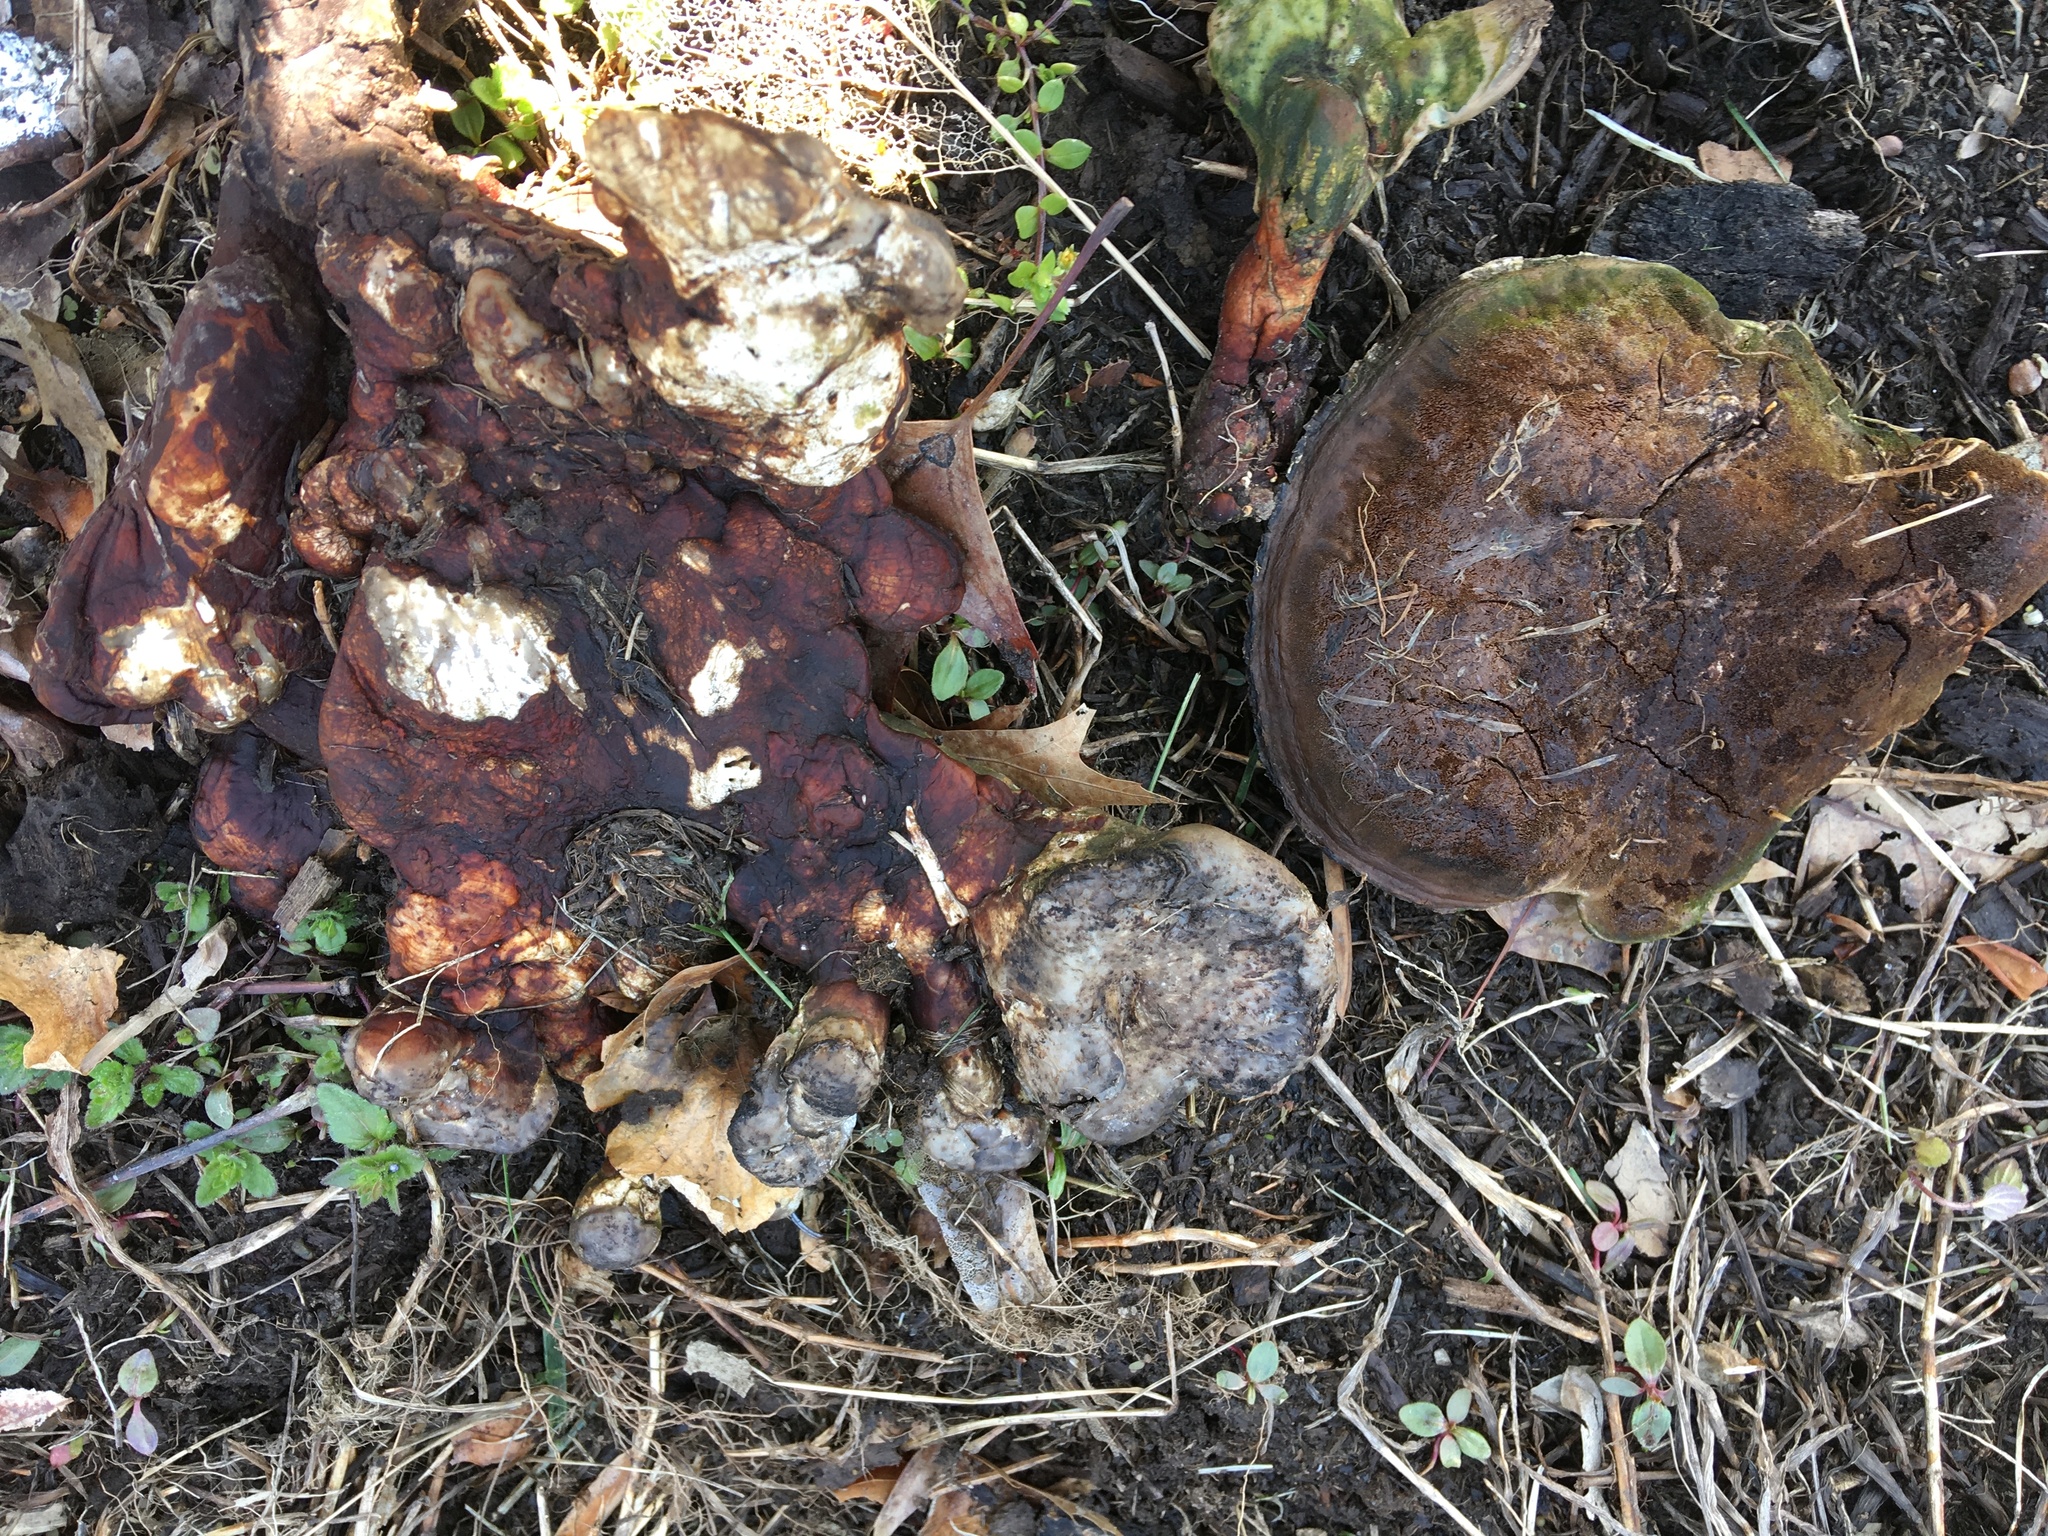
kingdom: Fungi
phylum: Basidiomycota
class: Agaricomycetes
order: Polyporales
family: Polyporaceae
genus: Ganoderma
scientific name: Ganoderma curtisii
